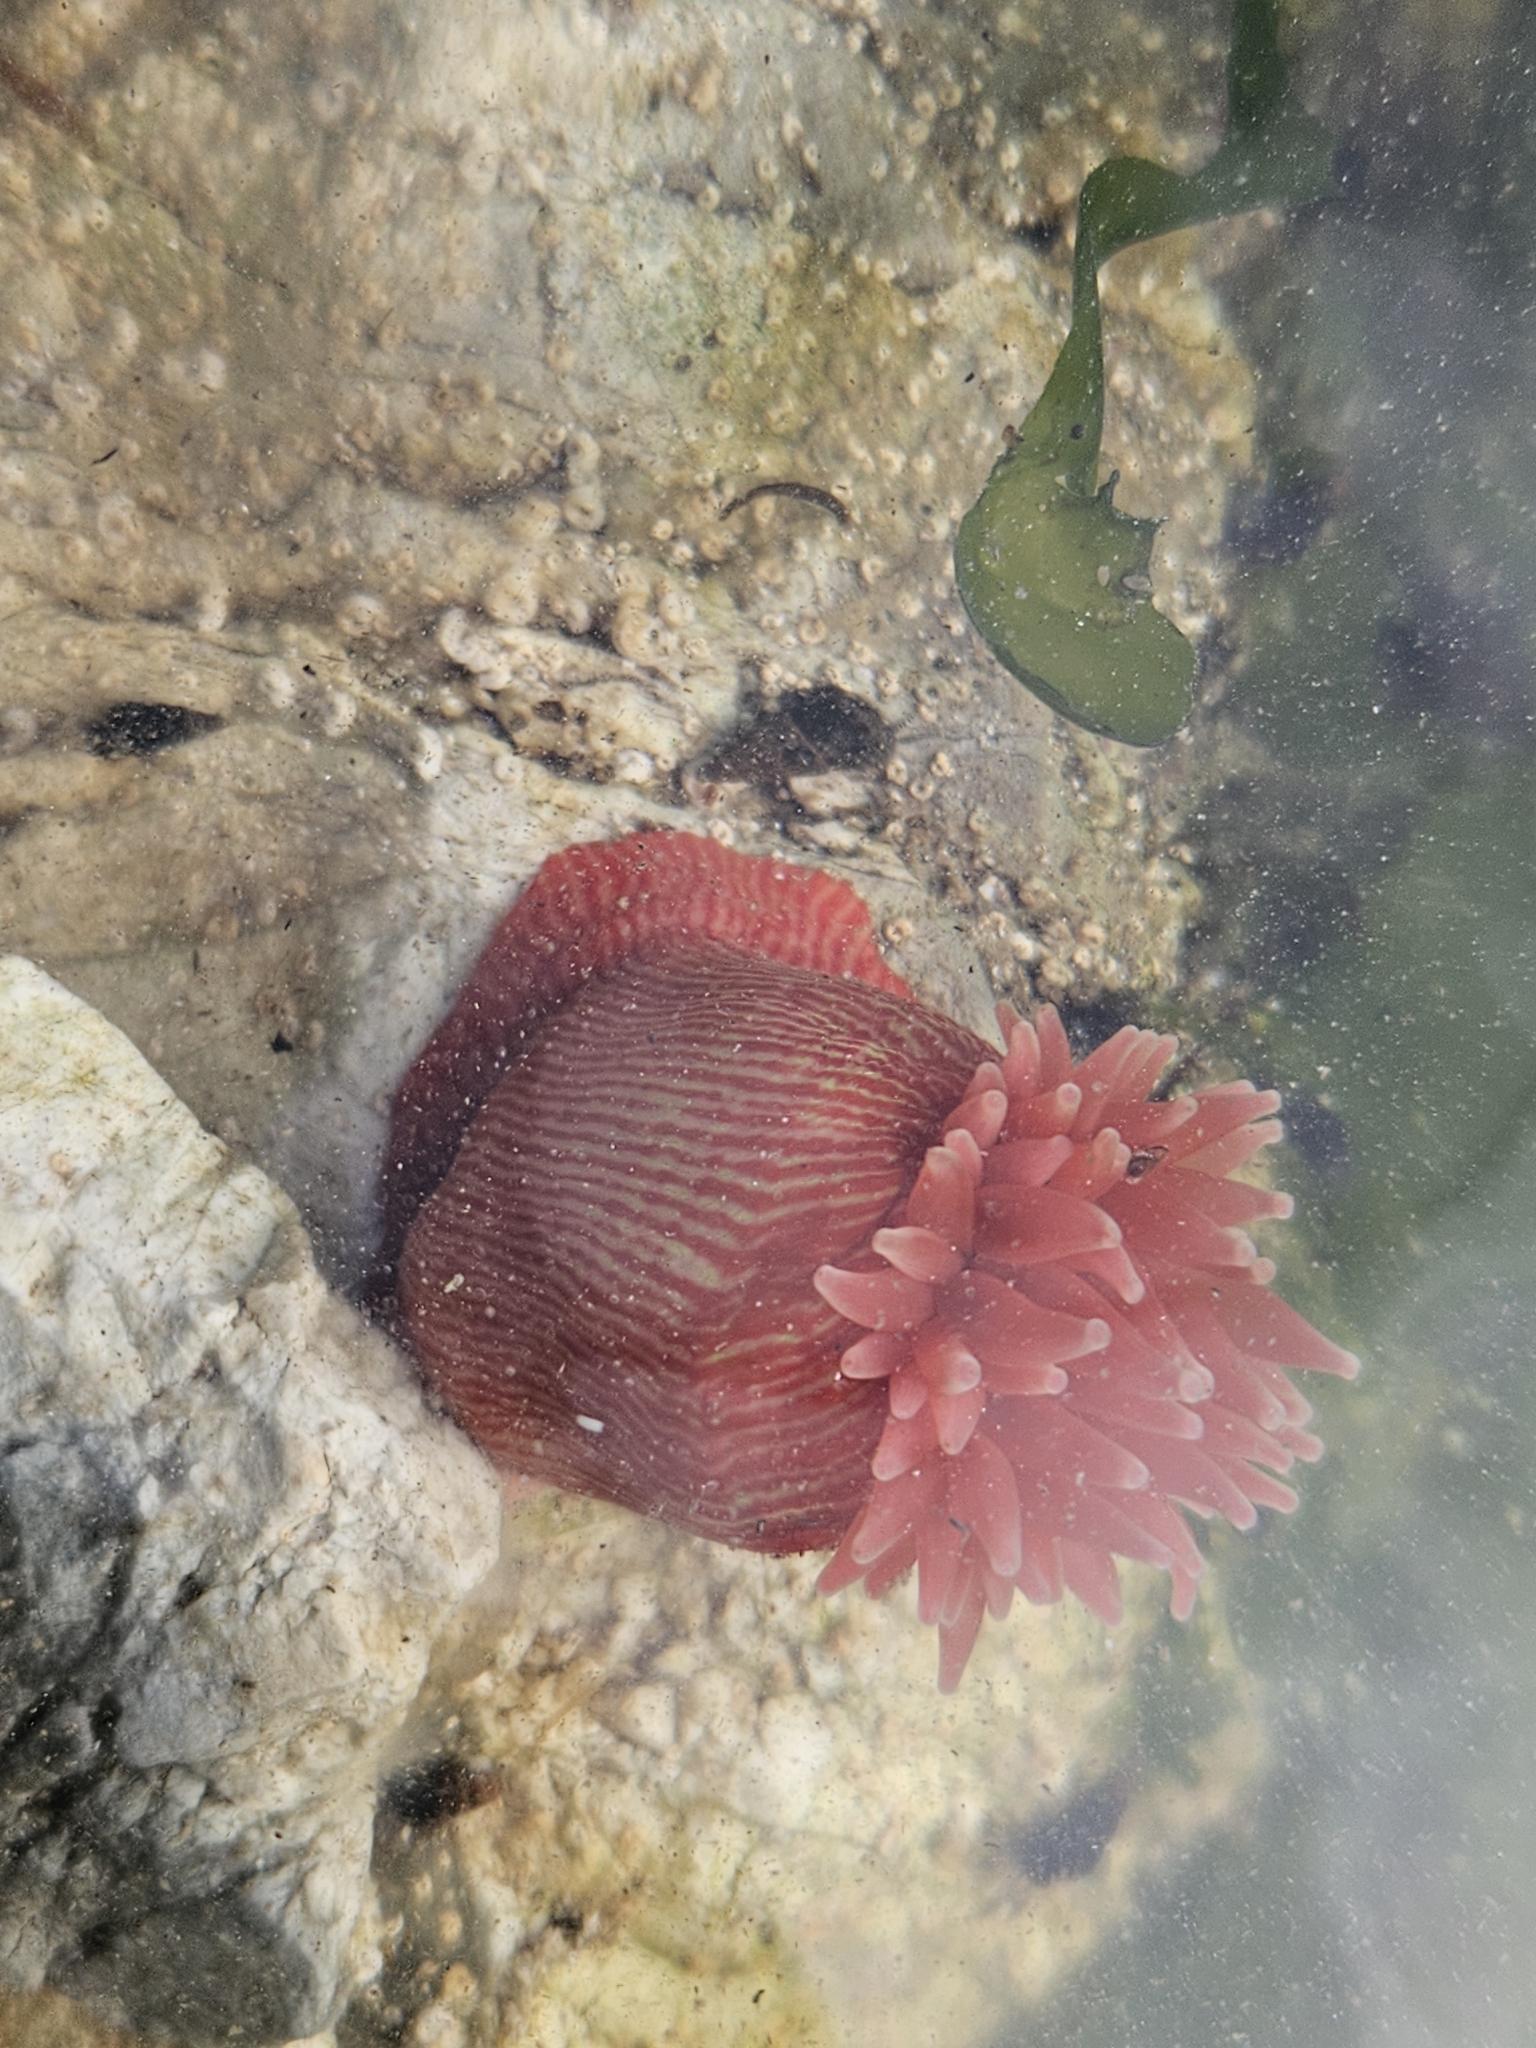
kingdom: Animalia
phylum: Cnidaria
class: Anthozoa
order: Actiniaria
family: Actiniidae
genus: Epiactis
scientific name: Epiactis thompsoni
